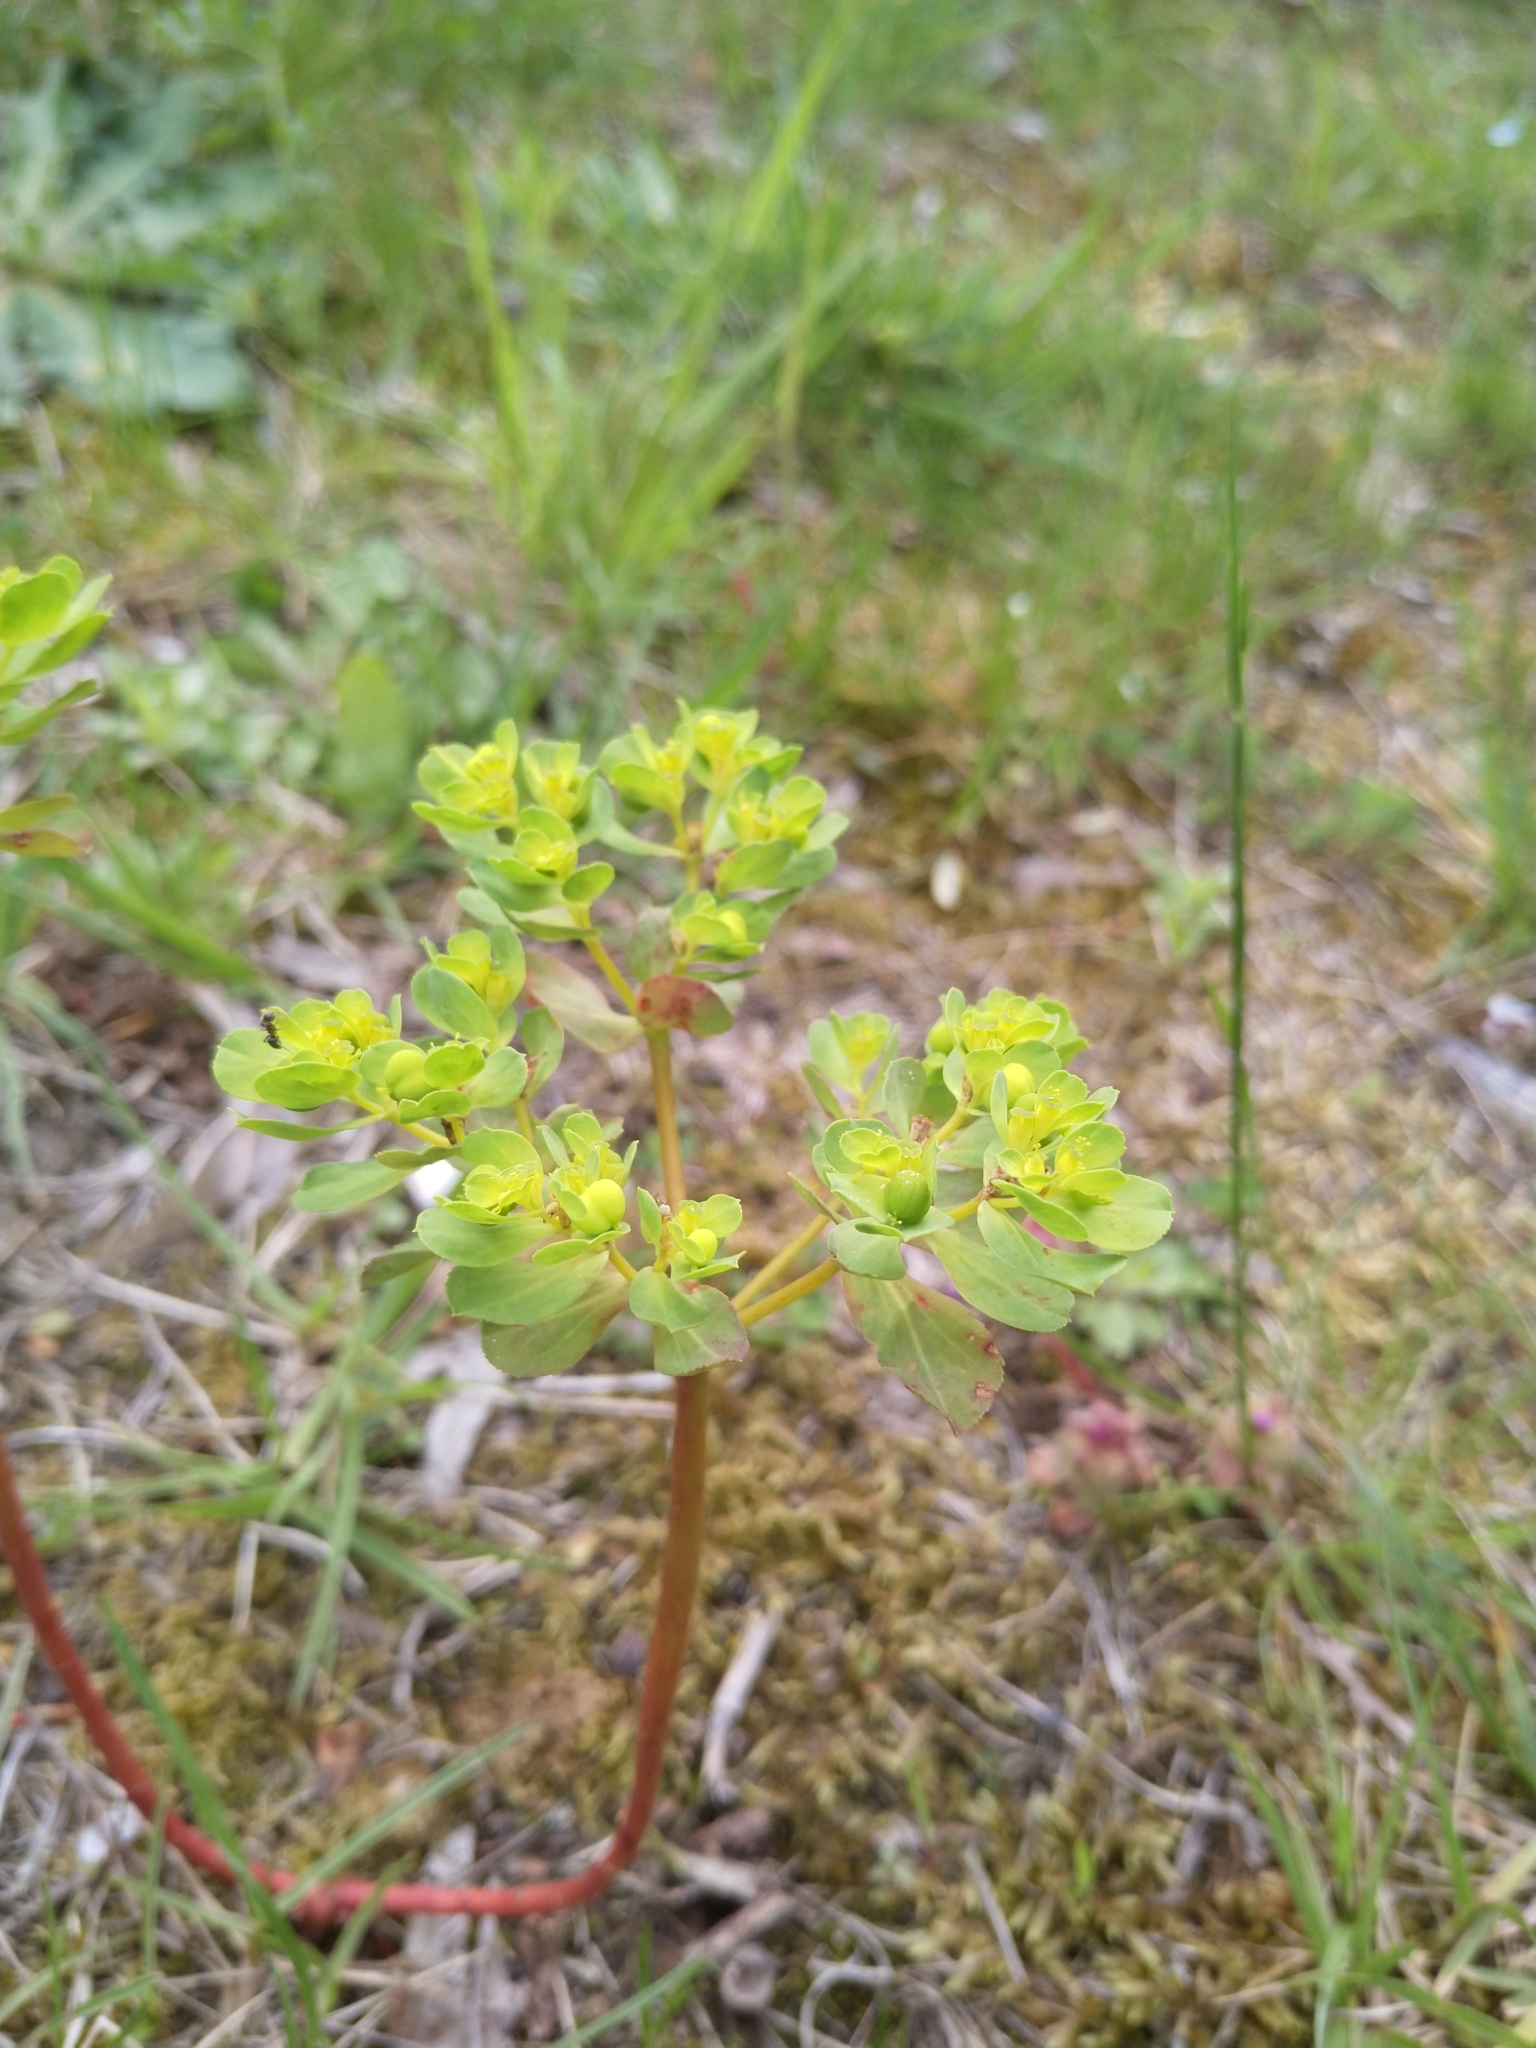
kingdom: Plantae
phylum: Tracheophyta
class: Magnoliopsida
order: Malpighiales
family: Euphorbiaceae
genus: Euphorbia
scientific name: Euphorbia helioscopia
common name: Sun spurge
